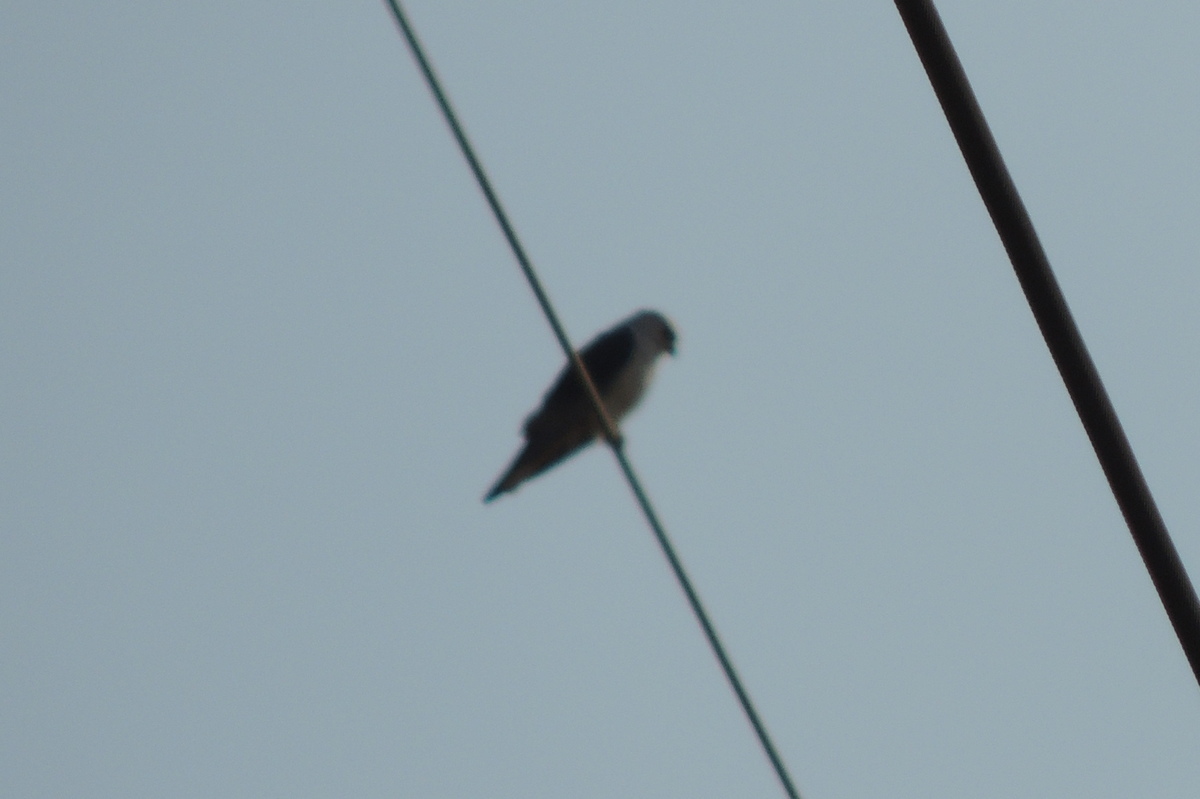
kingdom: Animalia
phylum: Chordata
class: Aves
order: Accipitriformes
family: Accipitridae
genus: Elanus
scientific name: Elanus caeruleus
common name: Black-winged kite
